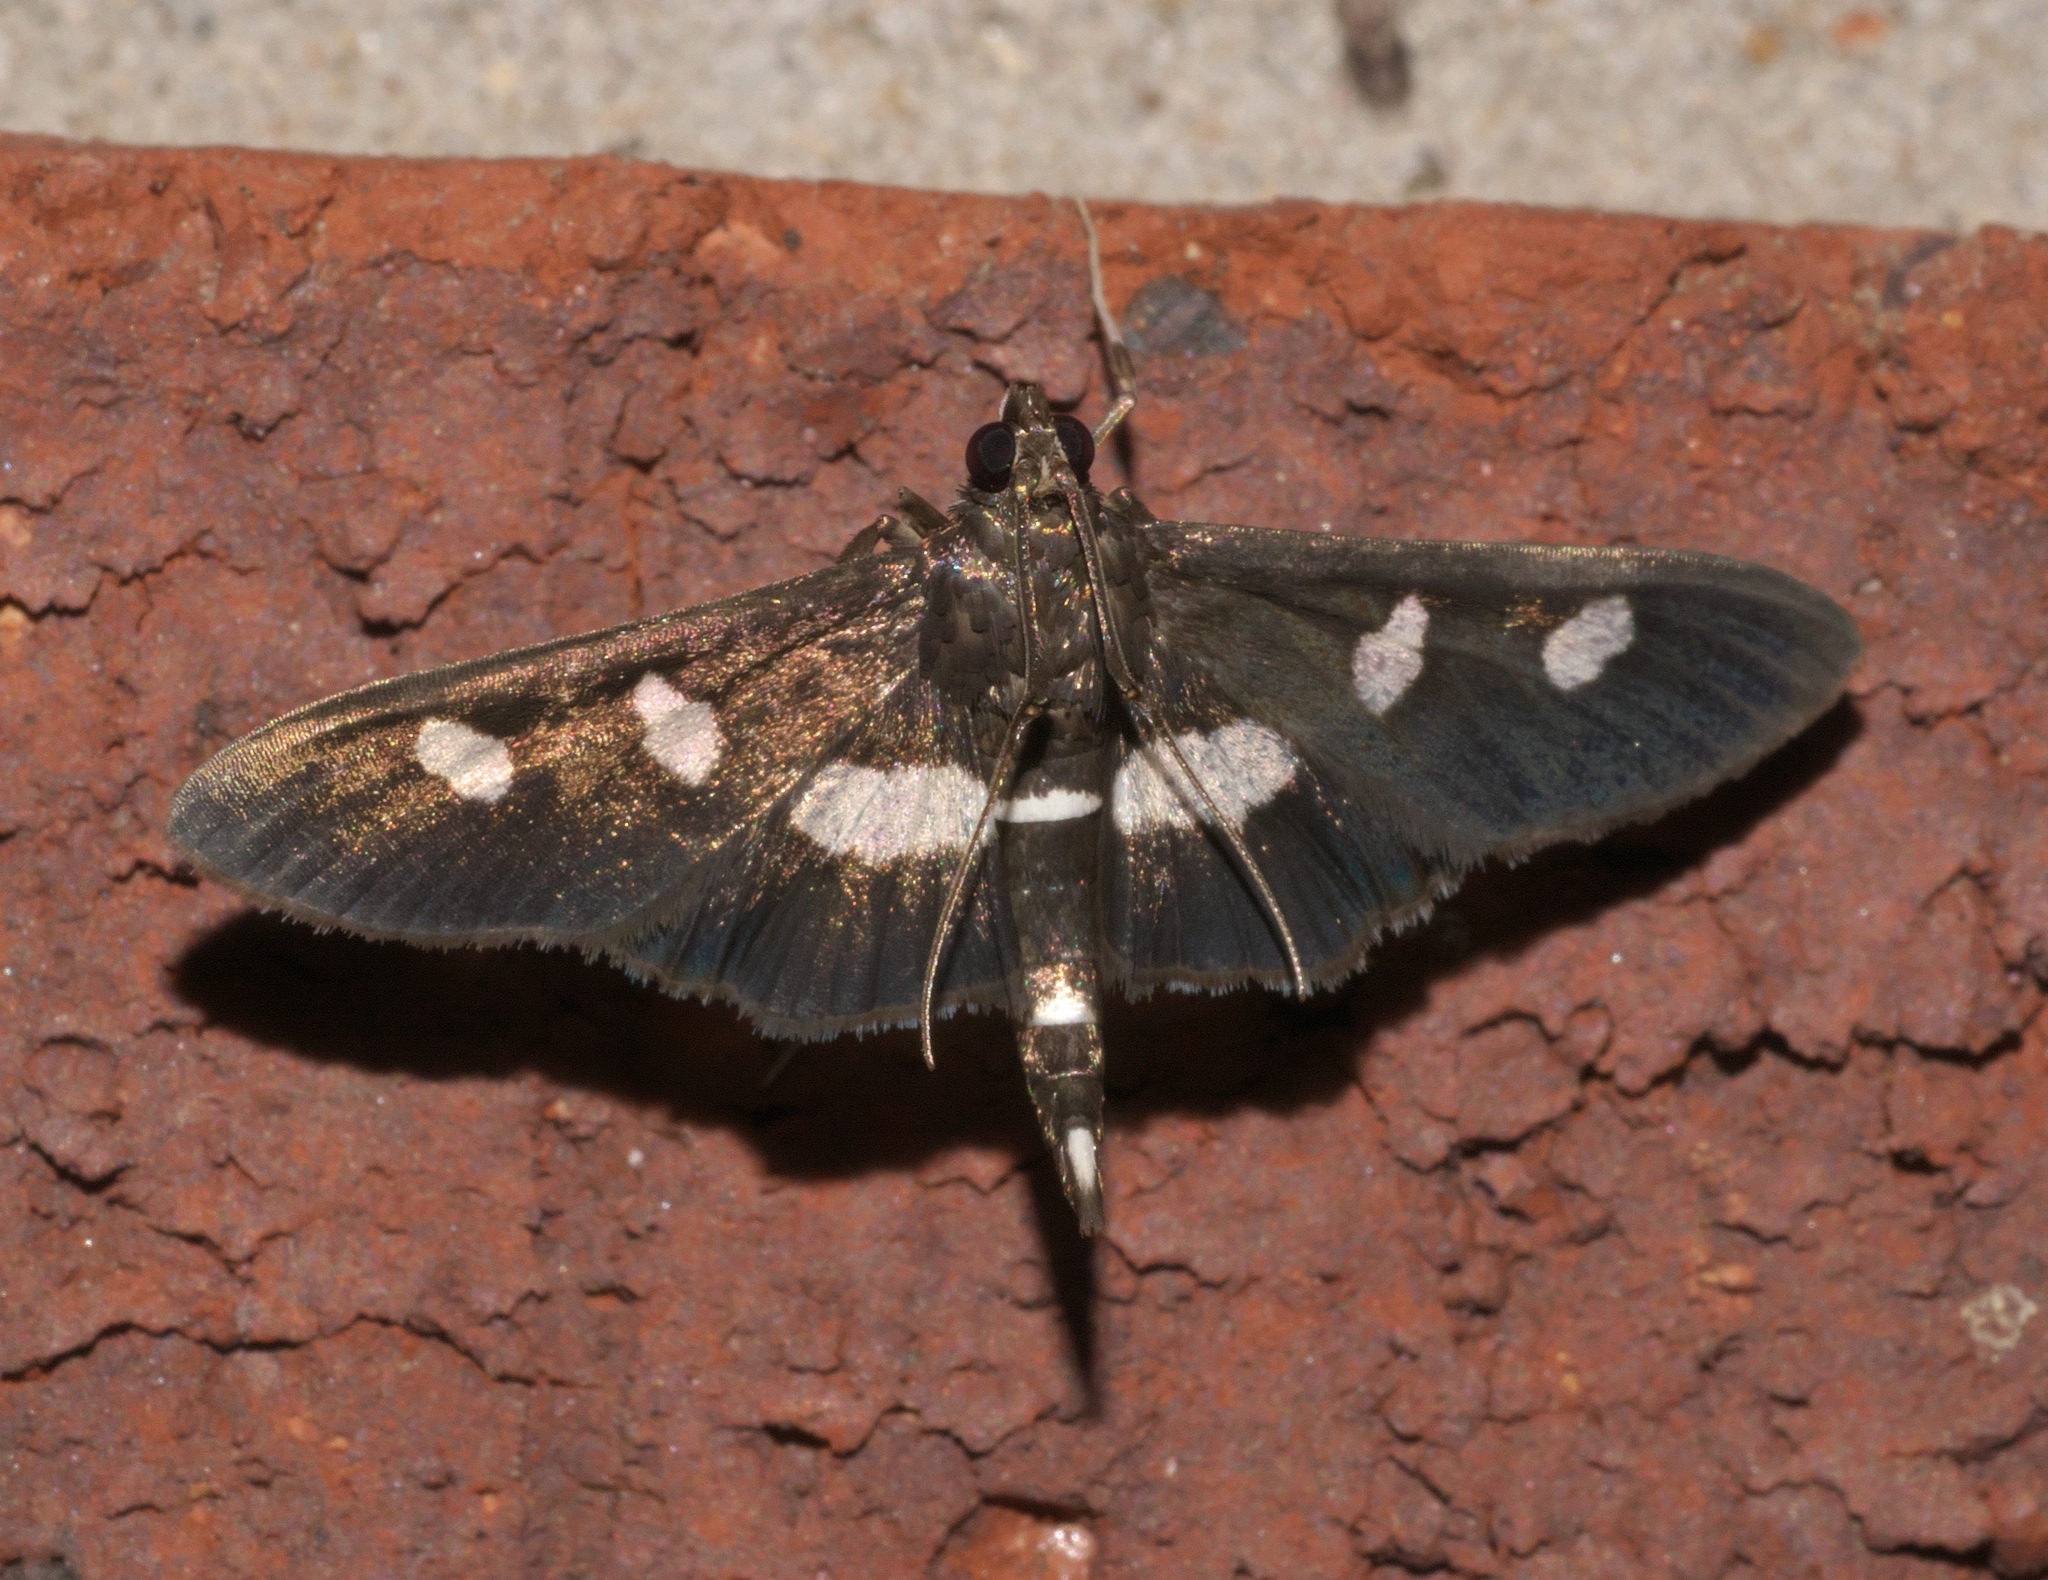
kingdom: Animalia
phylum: Arthropoda
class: Insecta
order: Lepidoptera
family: Crambidae
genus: Desmia
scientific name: Desmia
